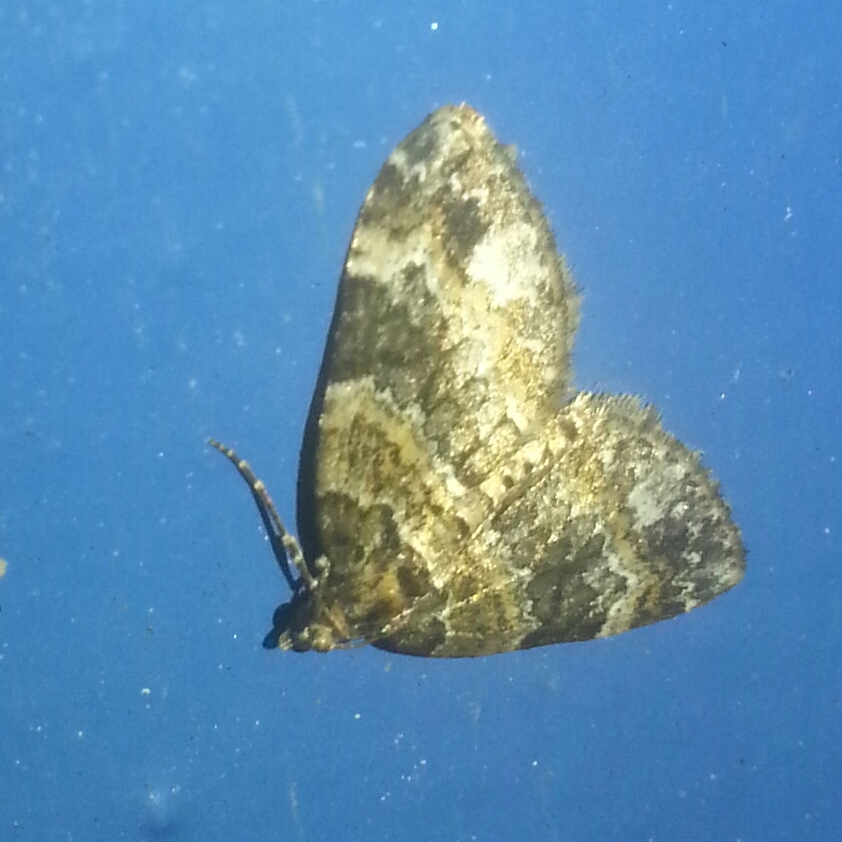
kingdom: Animalia
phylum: Arthropoda
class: Insecta
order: Lepidoptera
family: Geometridae
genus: Martania
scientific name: Martania
